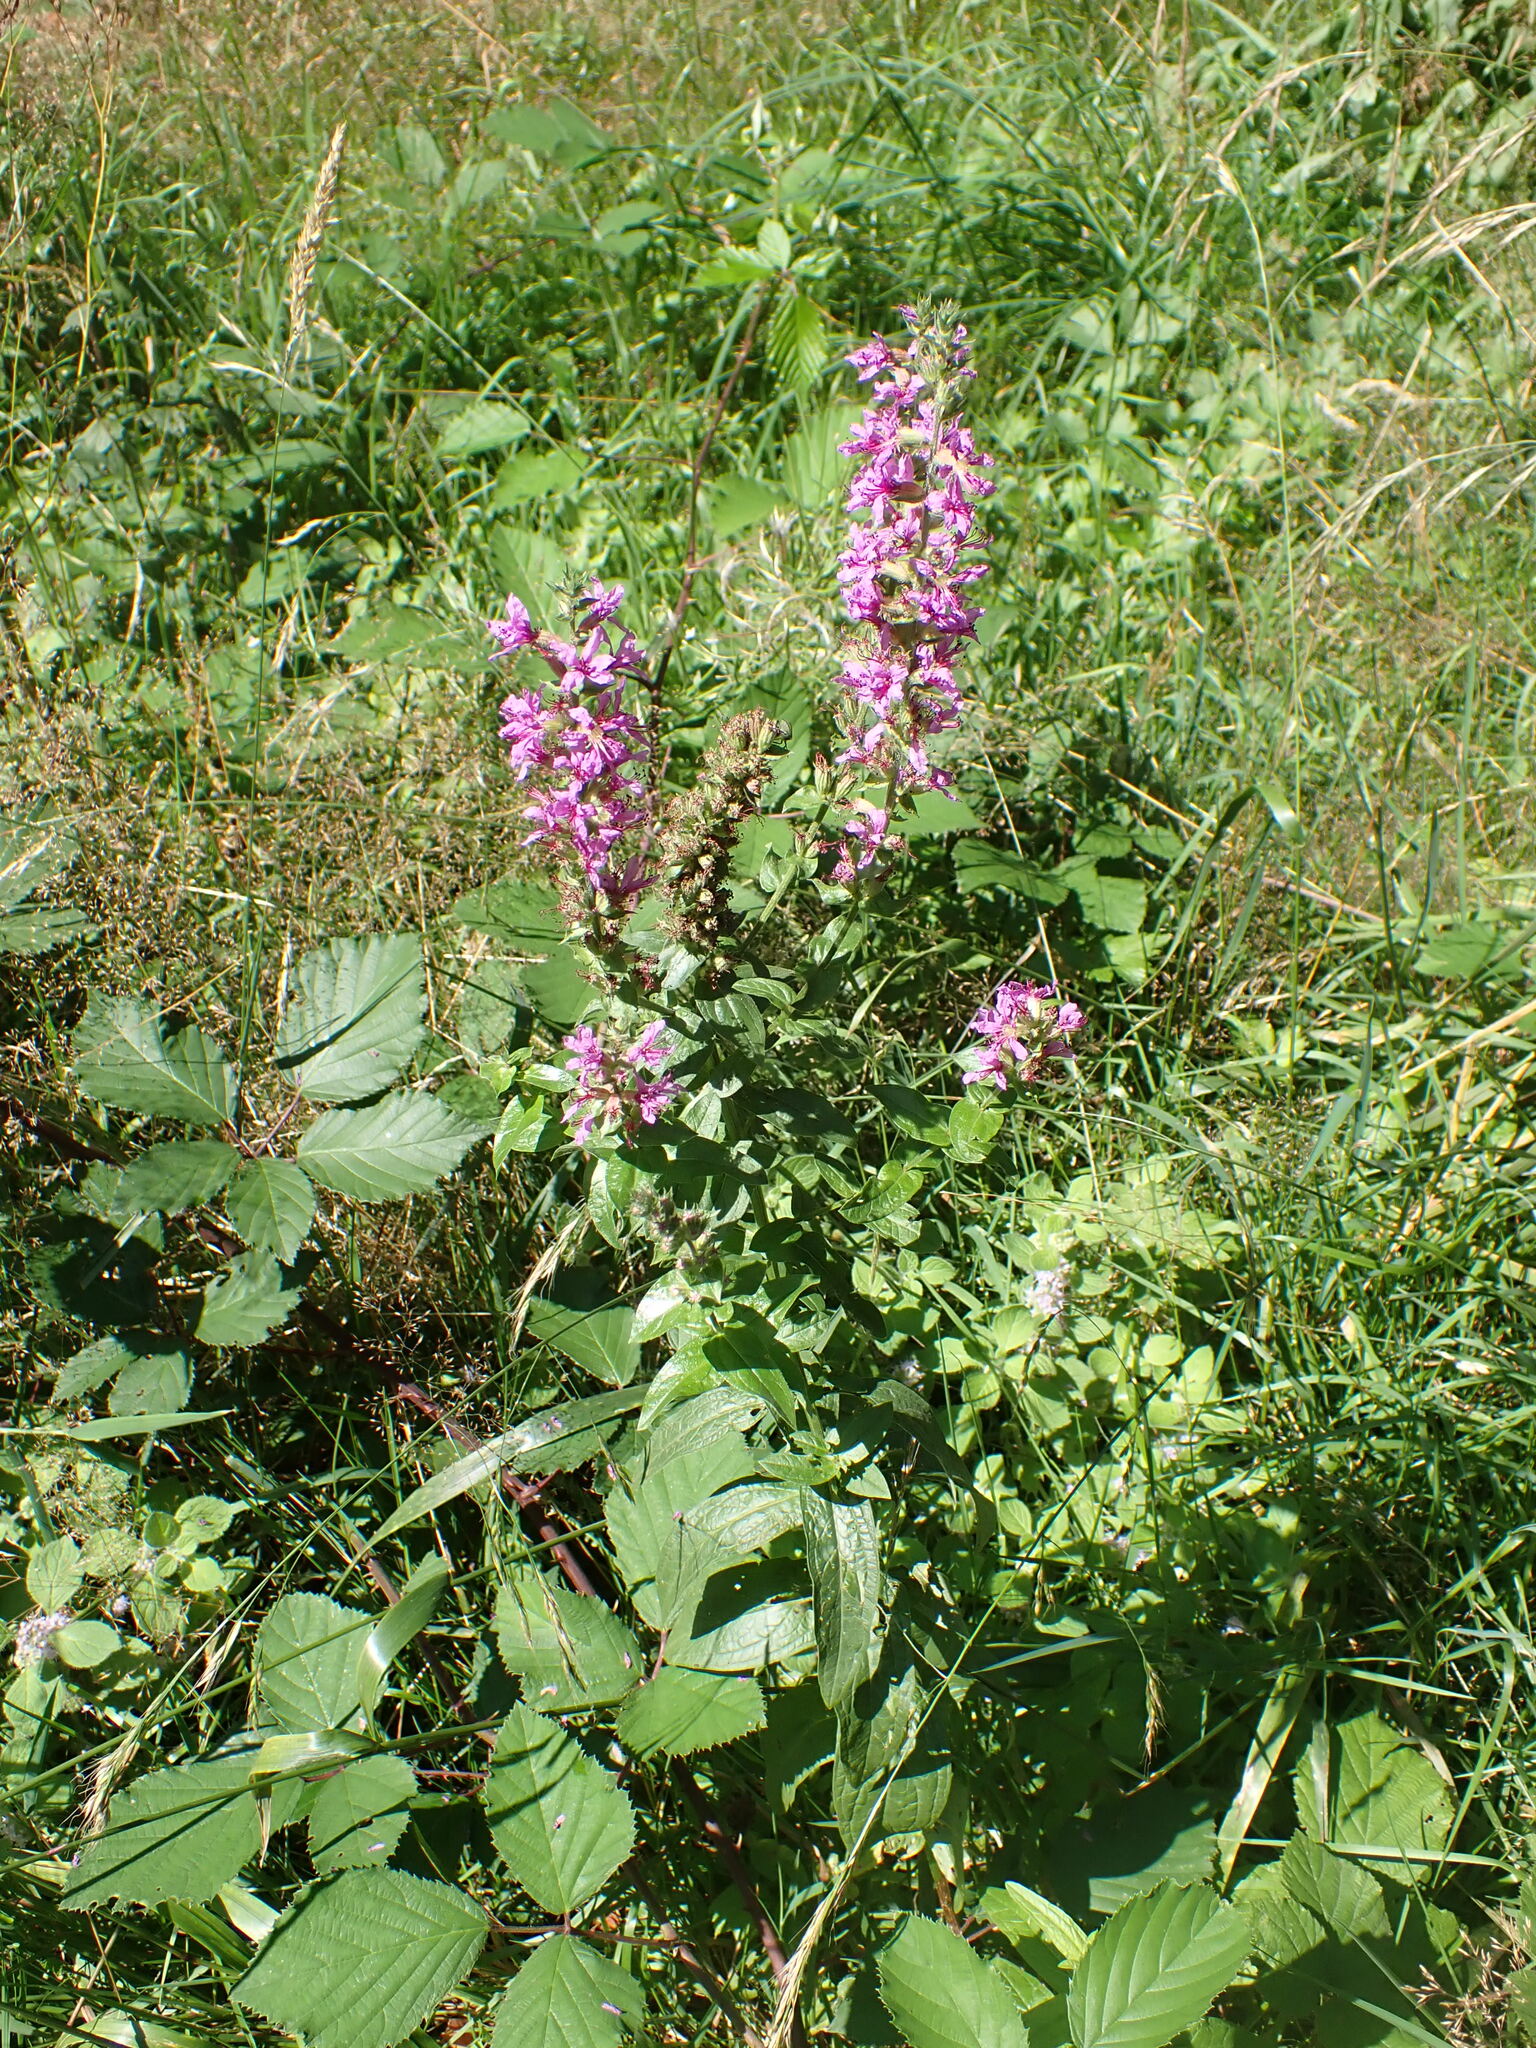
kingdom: Plantae
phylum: Tracheophyta
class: Magnoliopsida
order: Myrtales
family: Lythraceae
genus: Lythrum
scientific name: Lythrum salicaria
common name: Purple loosestrife
